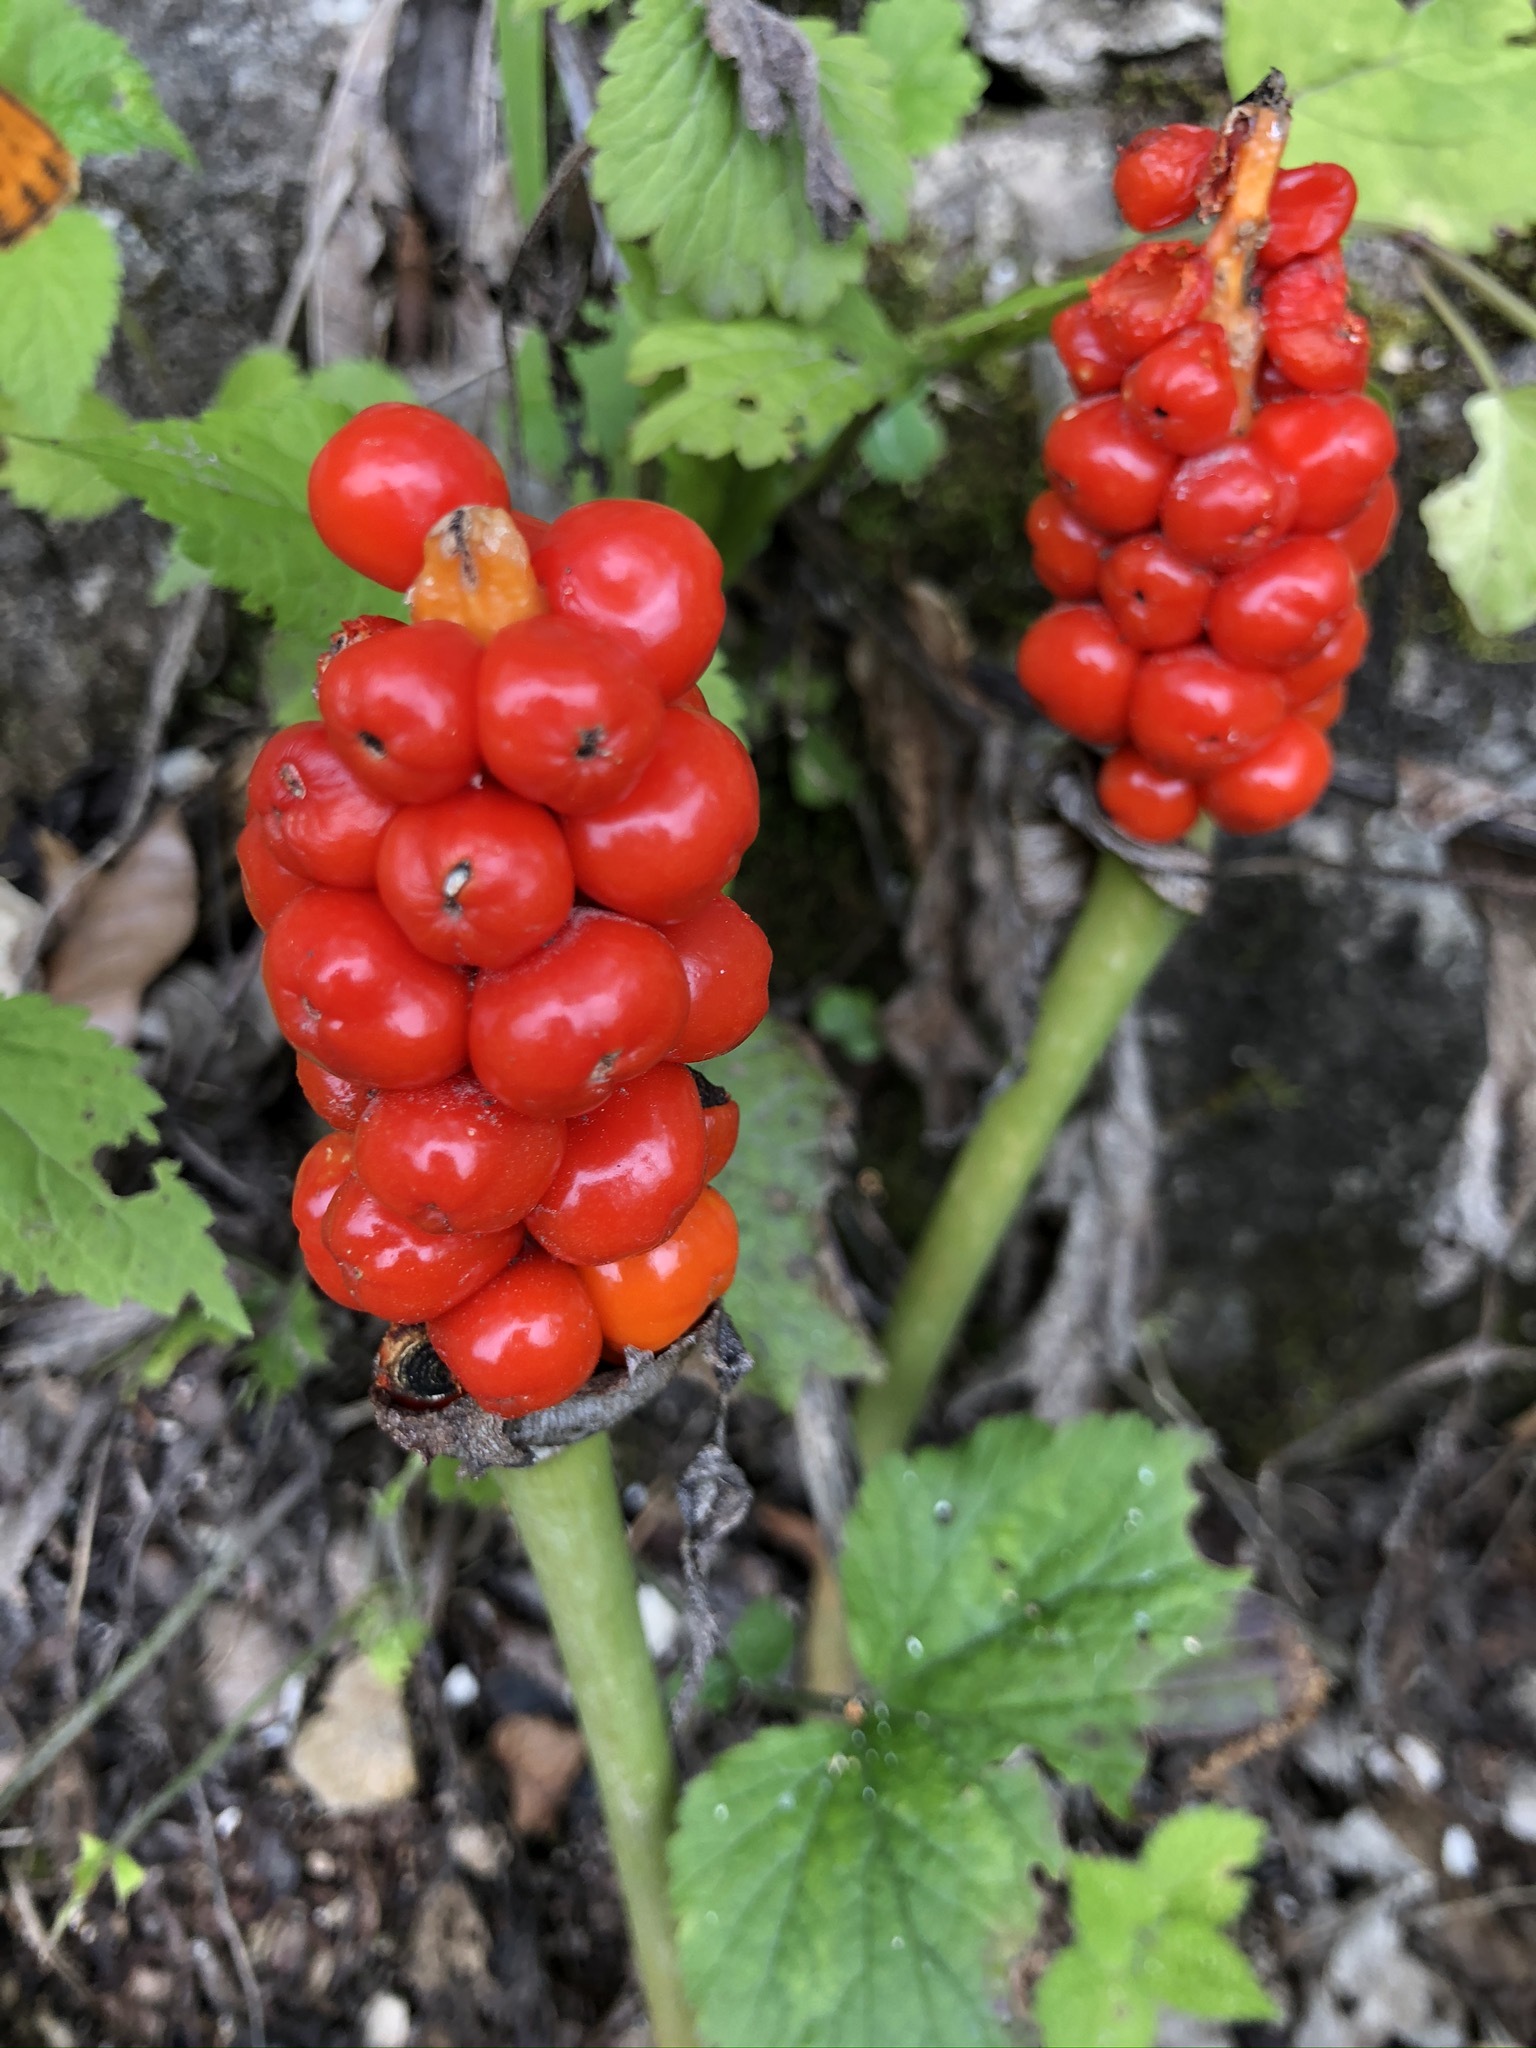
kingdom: Plantae
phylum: Tracheophyta
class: Liliopsida
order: Alismatales
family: Araceae
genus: Arum
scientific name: Arum maculatum
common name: Lords-and-ladies
